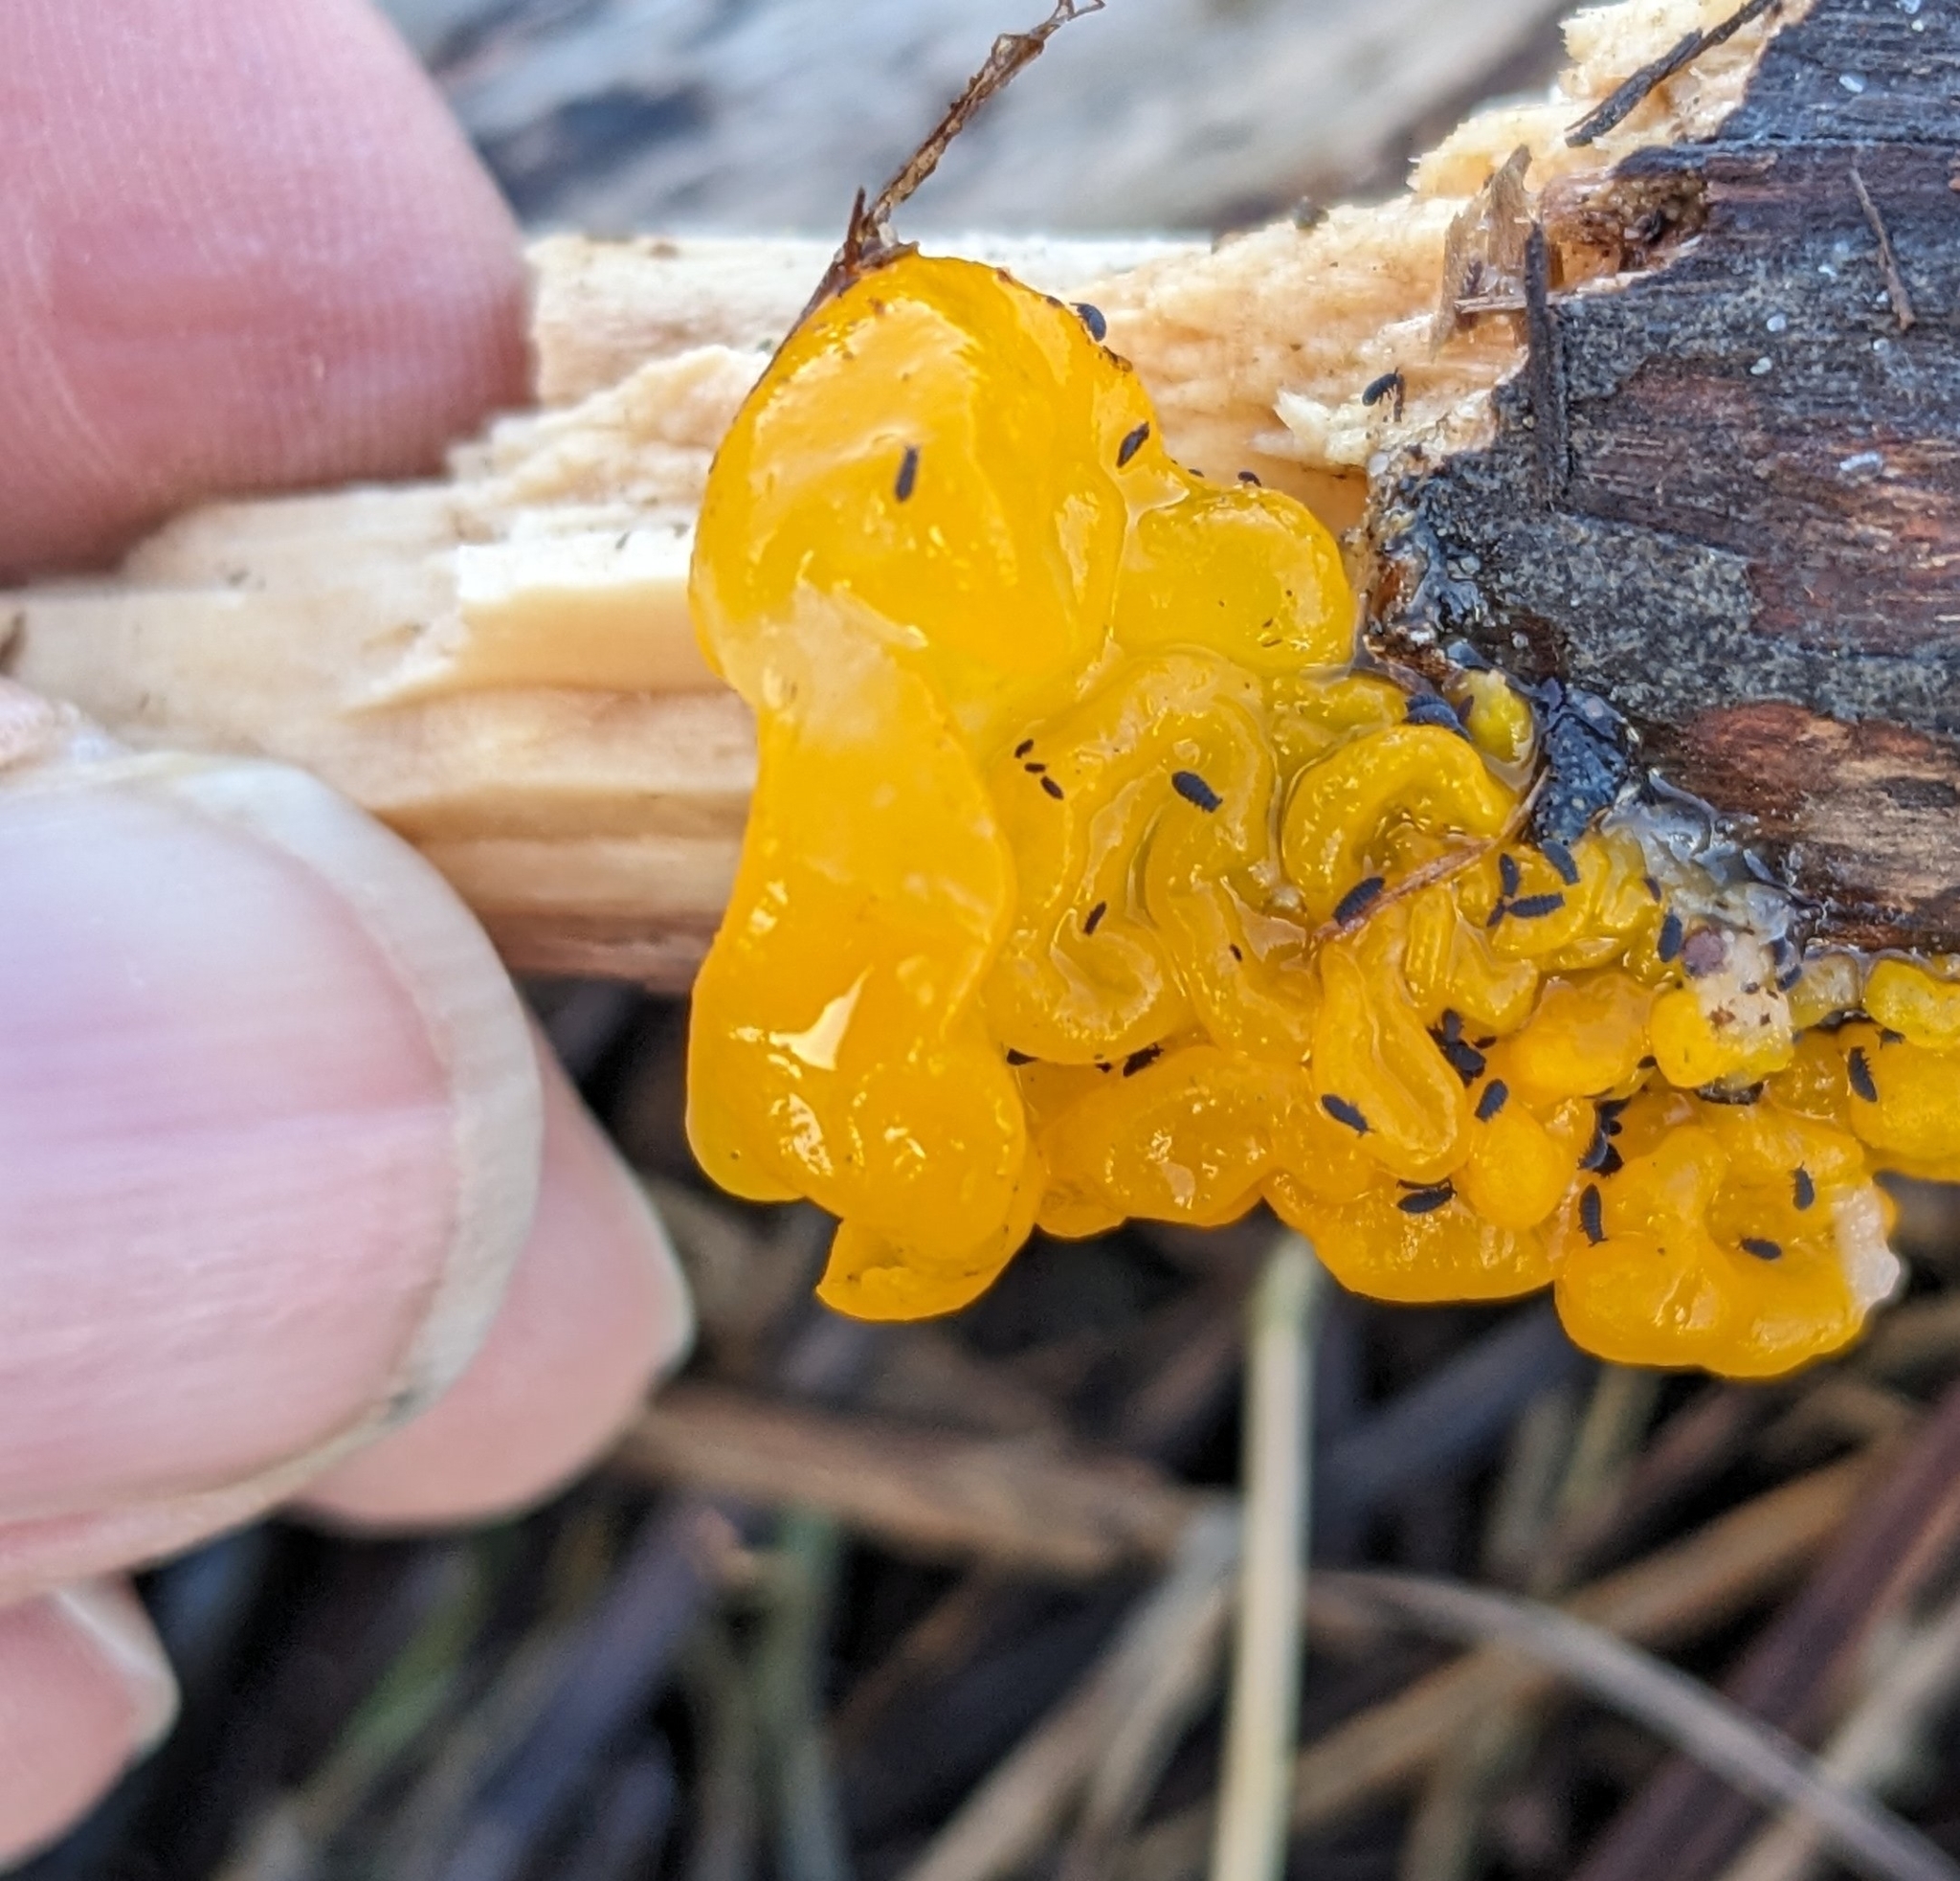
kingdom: Fungi
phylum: Basidiomycota
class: Tremellomycetes
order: Tremellales
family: Tremellaceae
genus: Tremella
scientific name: Tremella mesenterica
